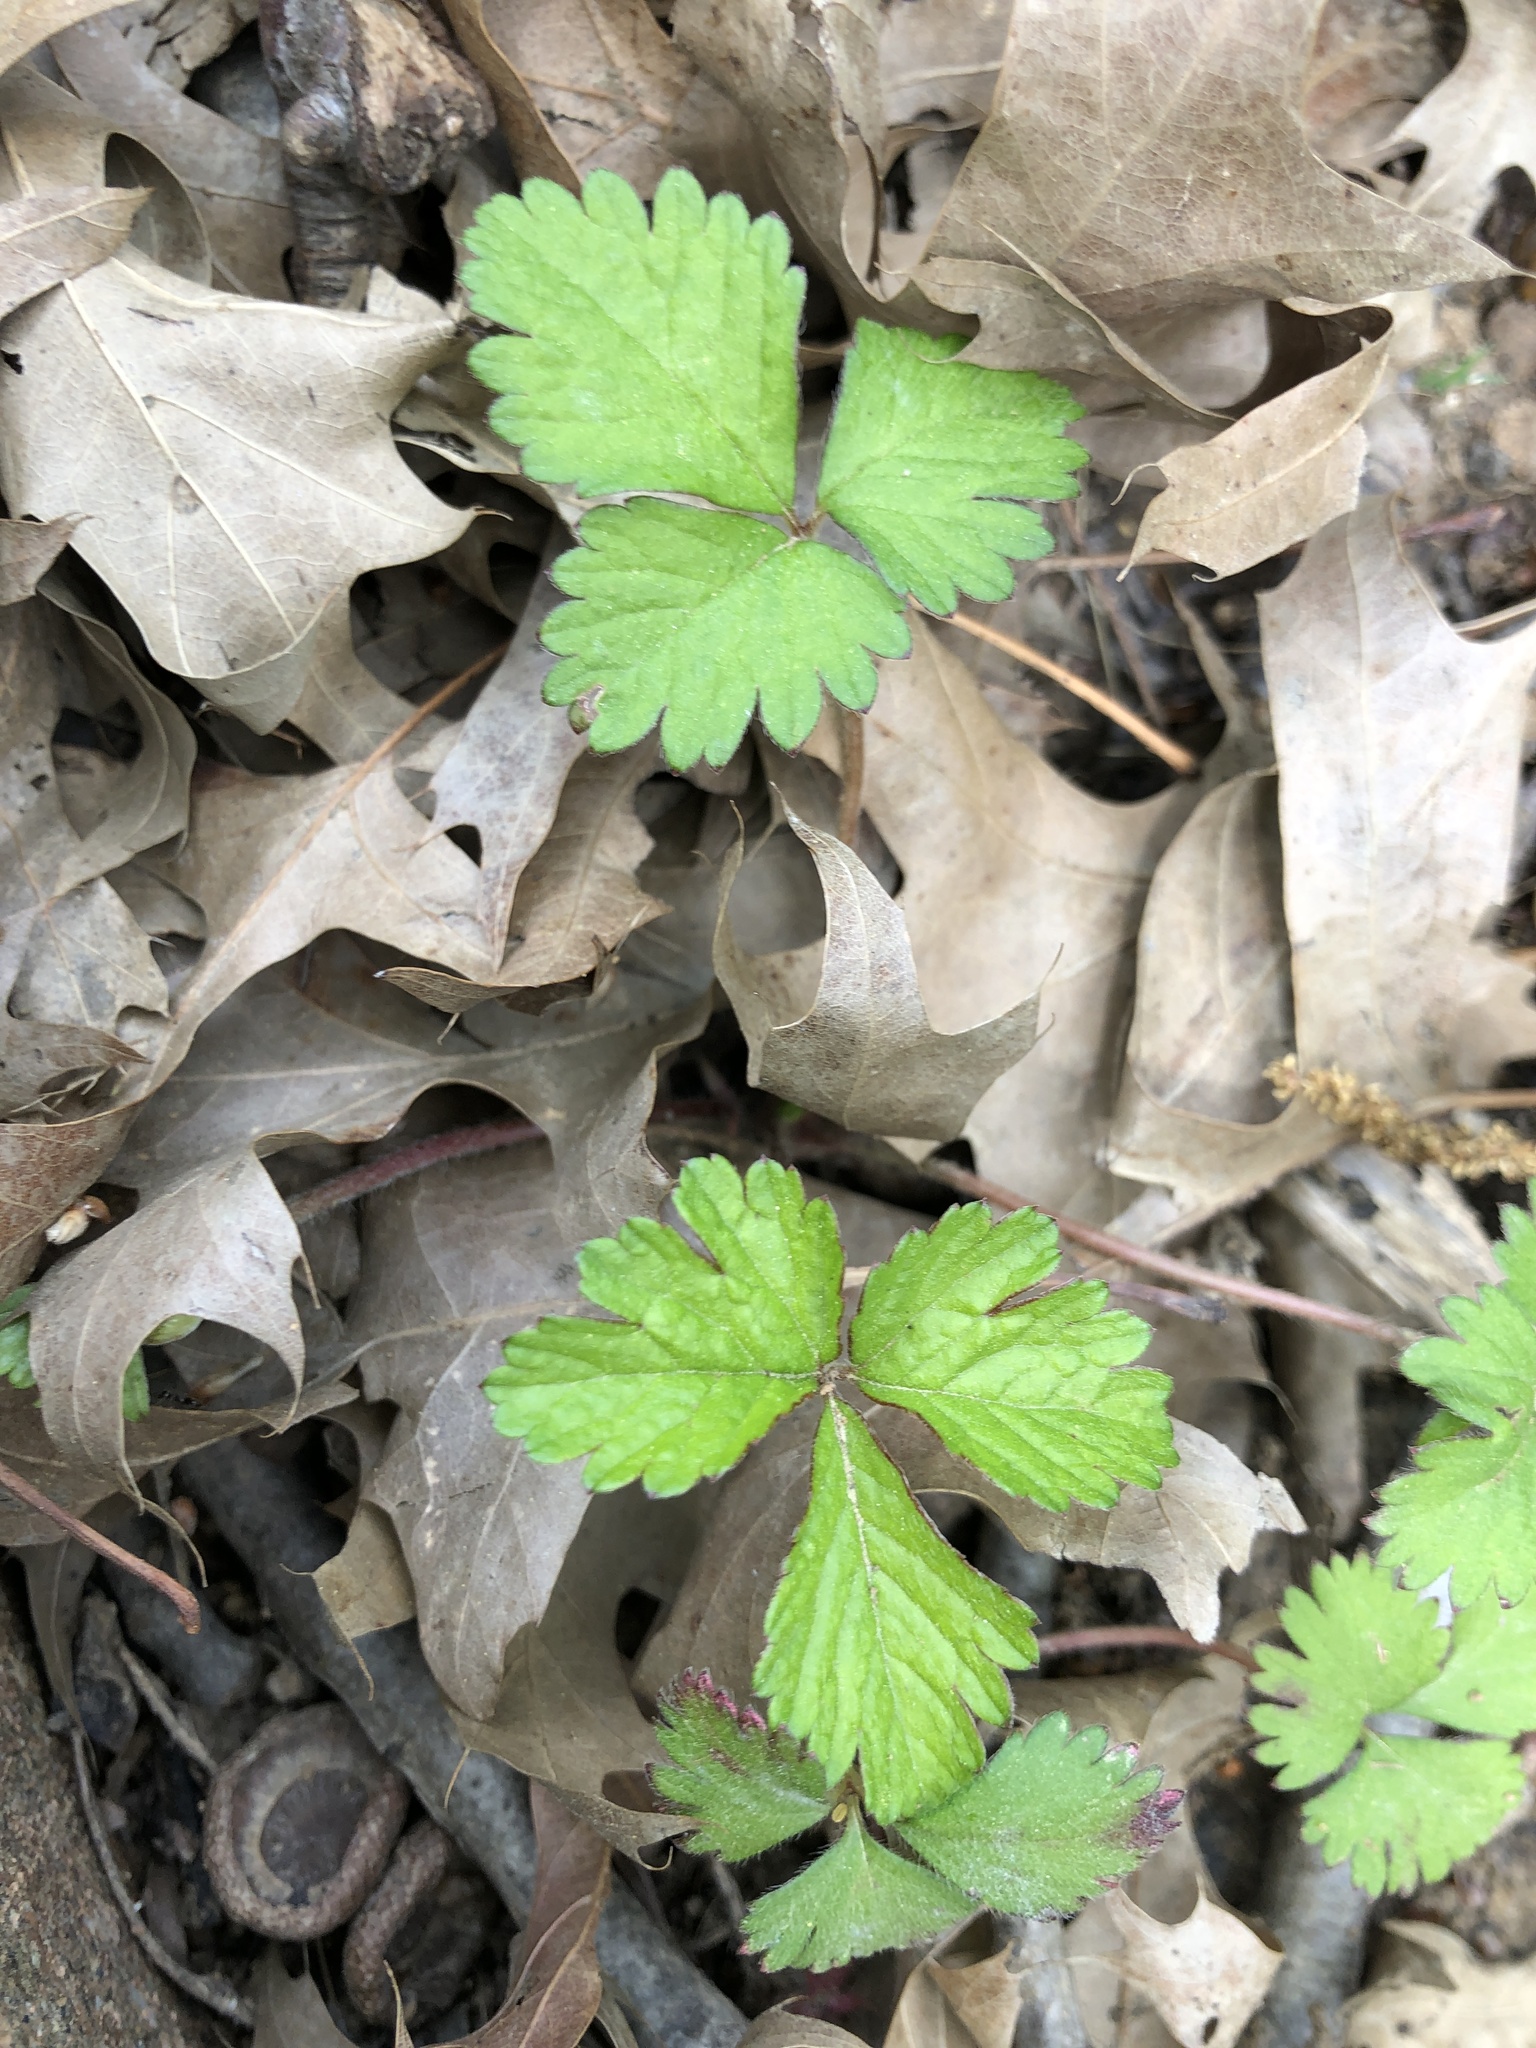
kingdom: Plantae
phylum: Tracheophyta
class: Magnoliopsida
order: Rosales
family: Rosaceae
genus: Potentilla
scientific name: Potentilla indica
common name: Yellow-flowered strawberry
